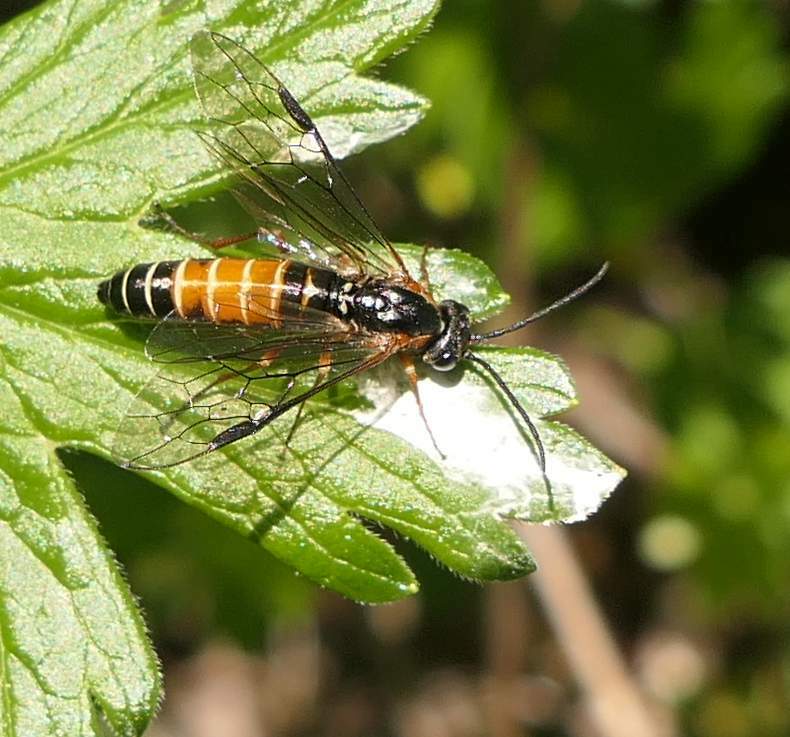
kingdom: Animalia
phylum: Arthropoda
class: Insecta
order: Hymenoptera
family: Tenthredinidae
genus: Strongylogaster
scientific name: Strongylogaster impressata
